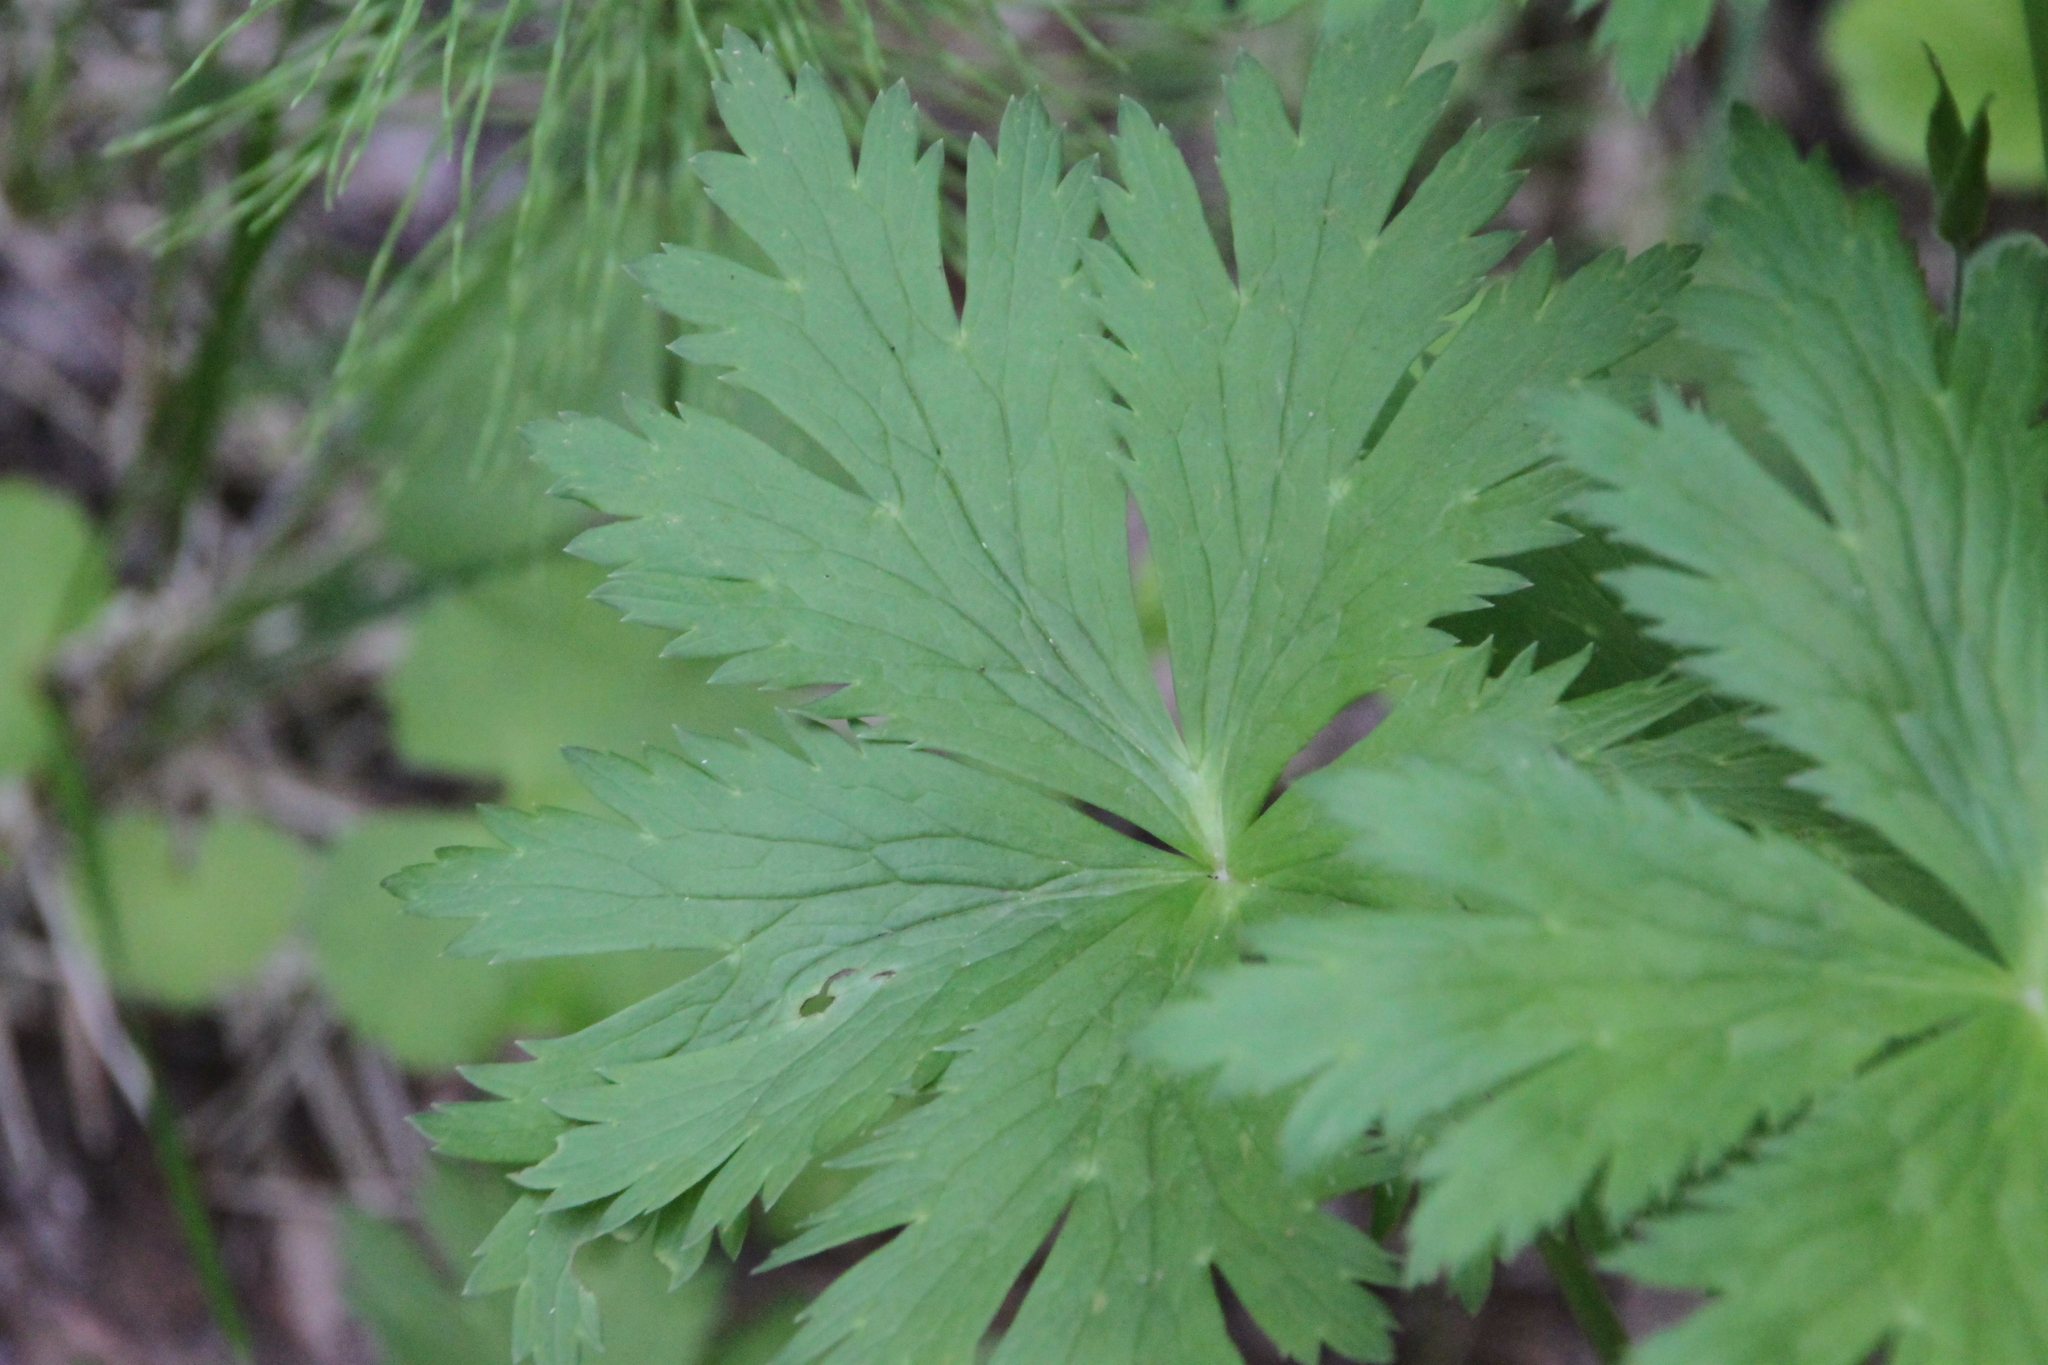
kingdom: Plantae
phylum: Tracheophyta
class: Magnoliopsida
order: Ranunculales
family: Ranunculaceae
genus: Trollius
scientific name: Trollius europaeus
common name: European globeflower
